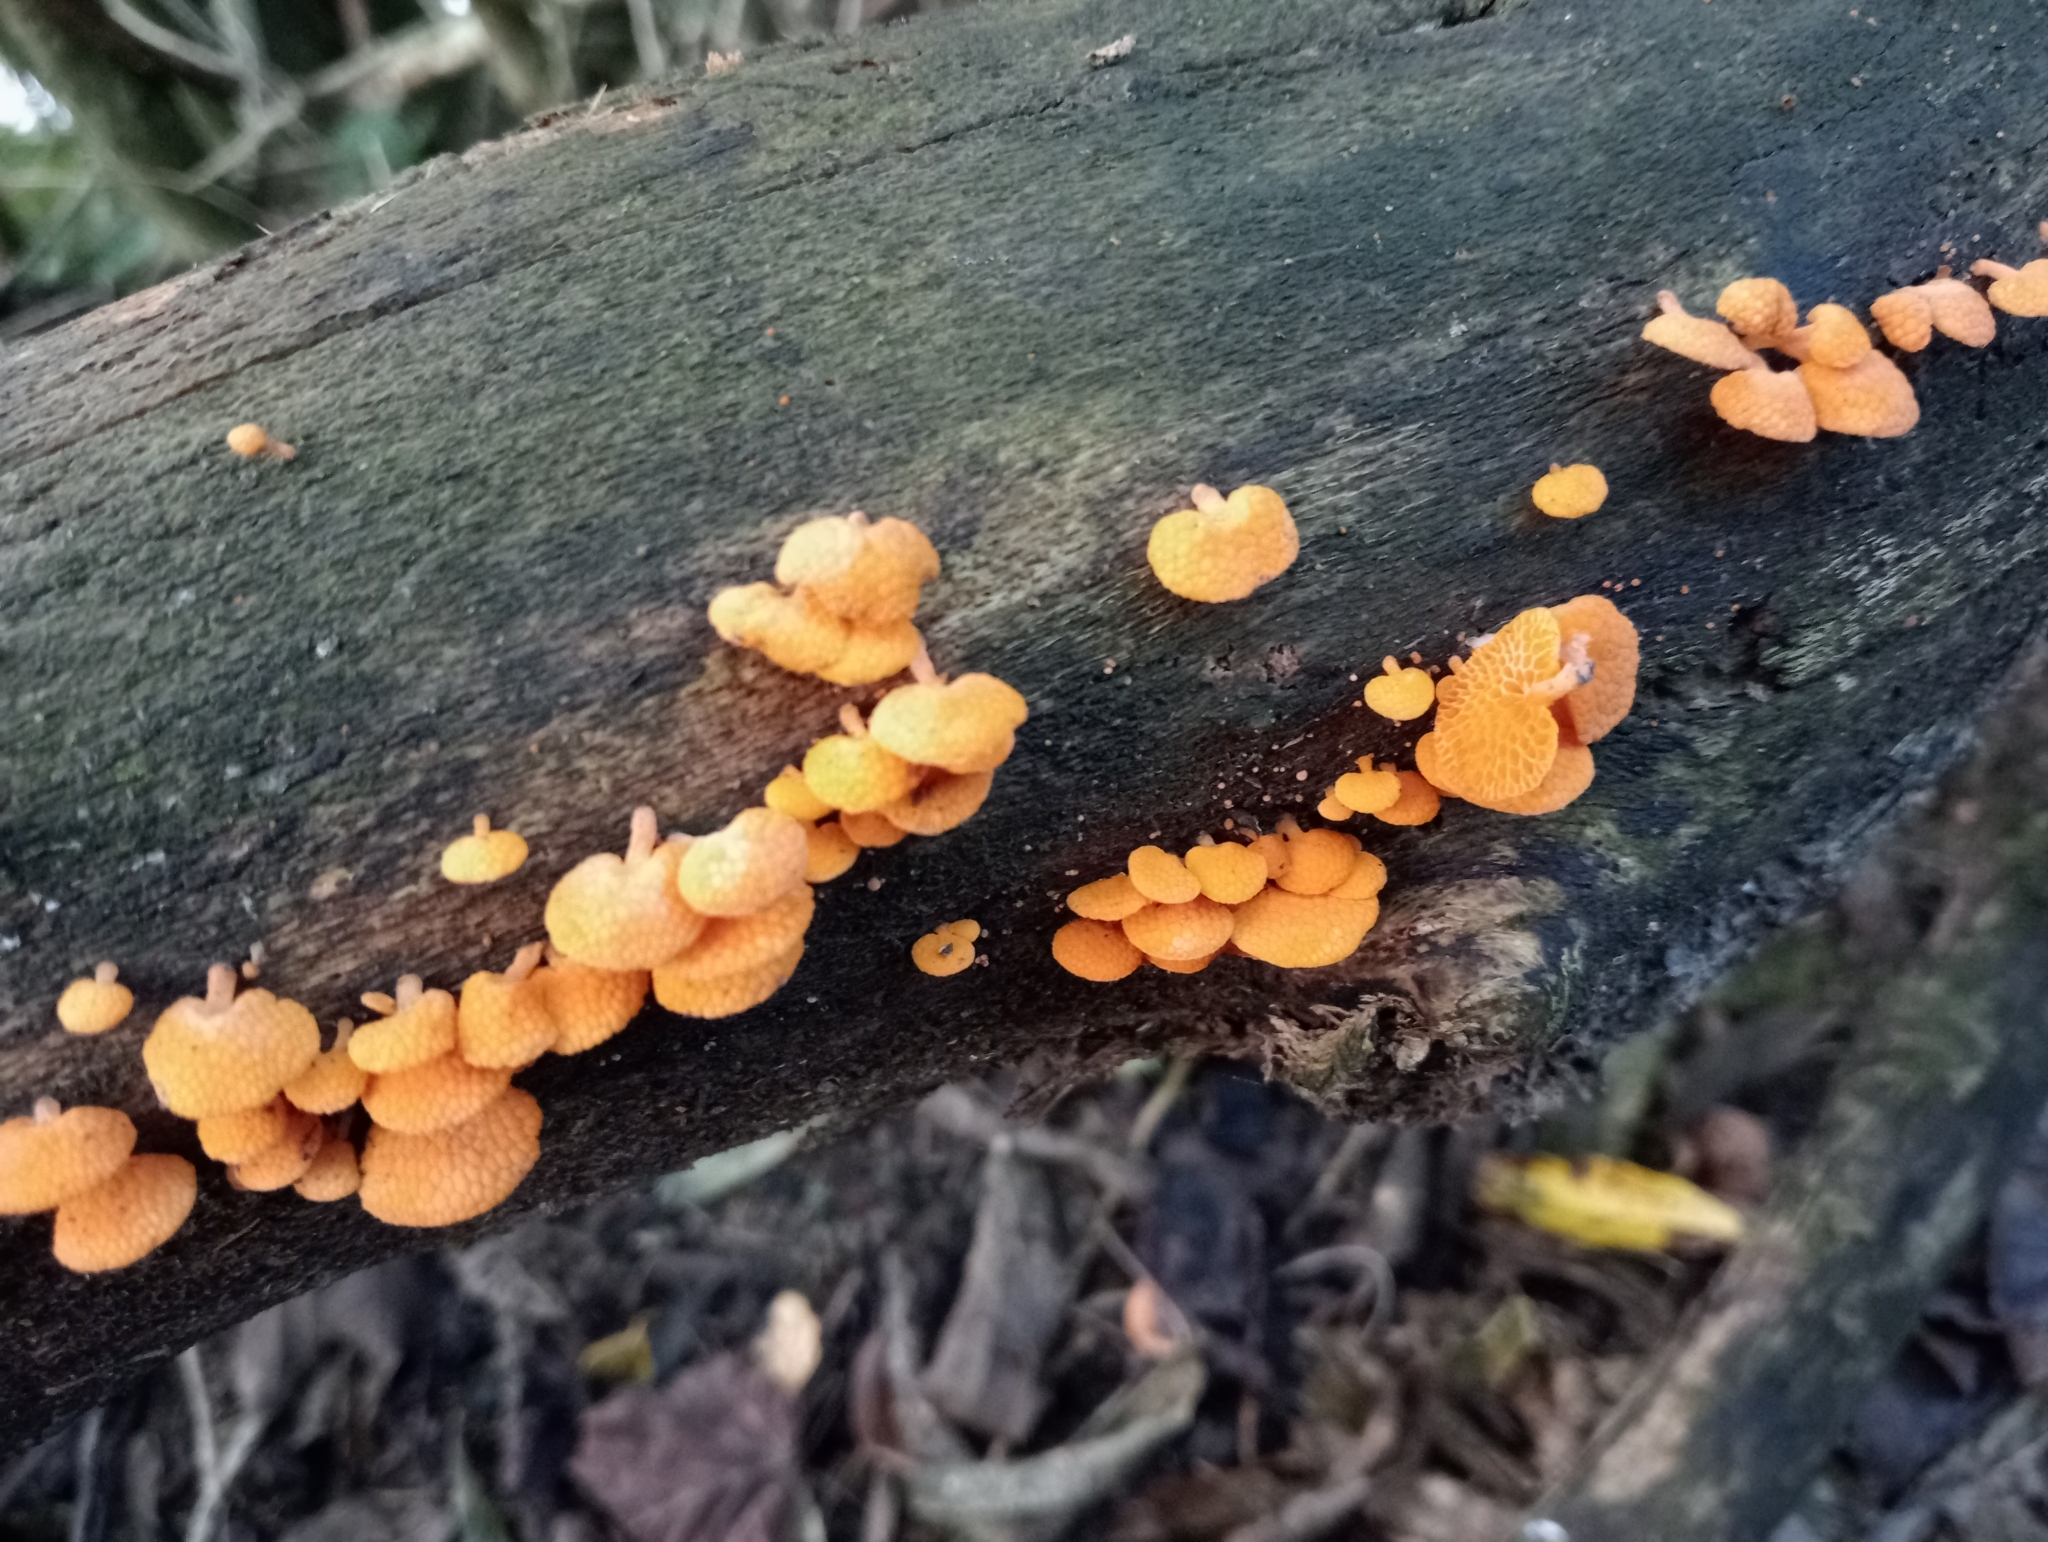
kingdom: Fungi
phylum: Basidiomycota
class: Agaricomycetes
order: Agaricales
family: Mycenaceae
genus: Favolaschia
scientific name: Favolaschia claudopus
